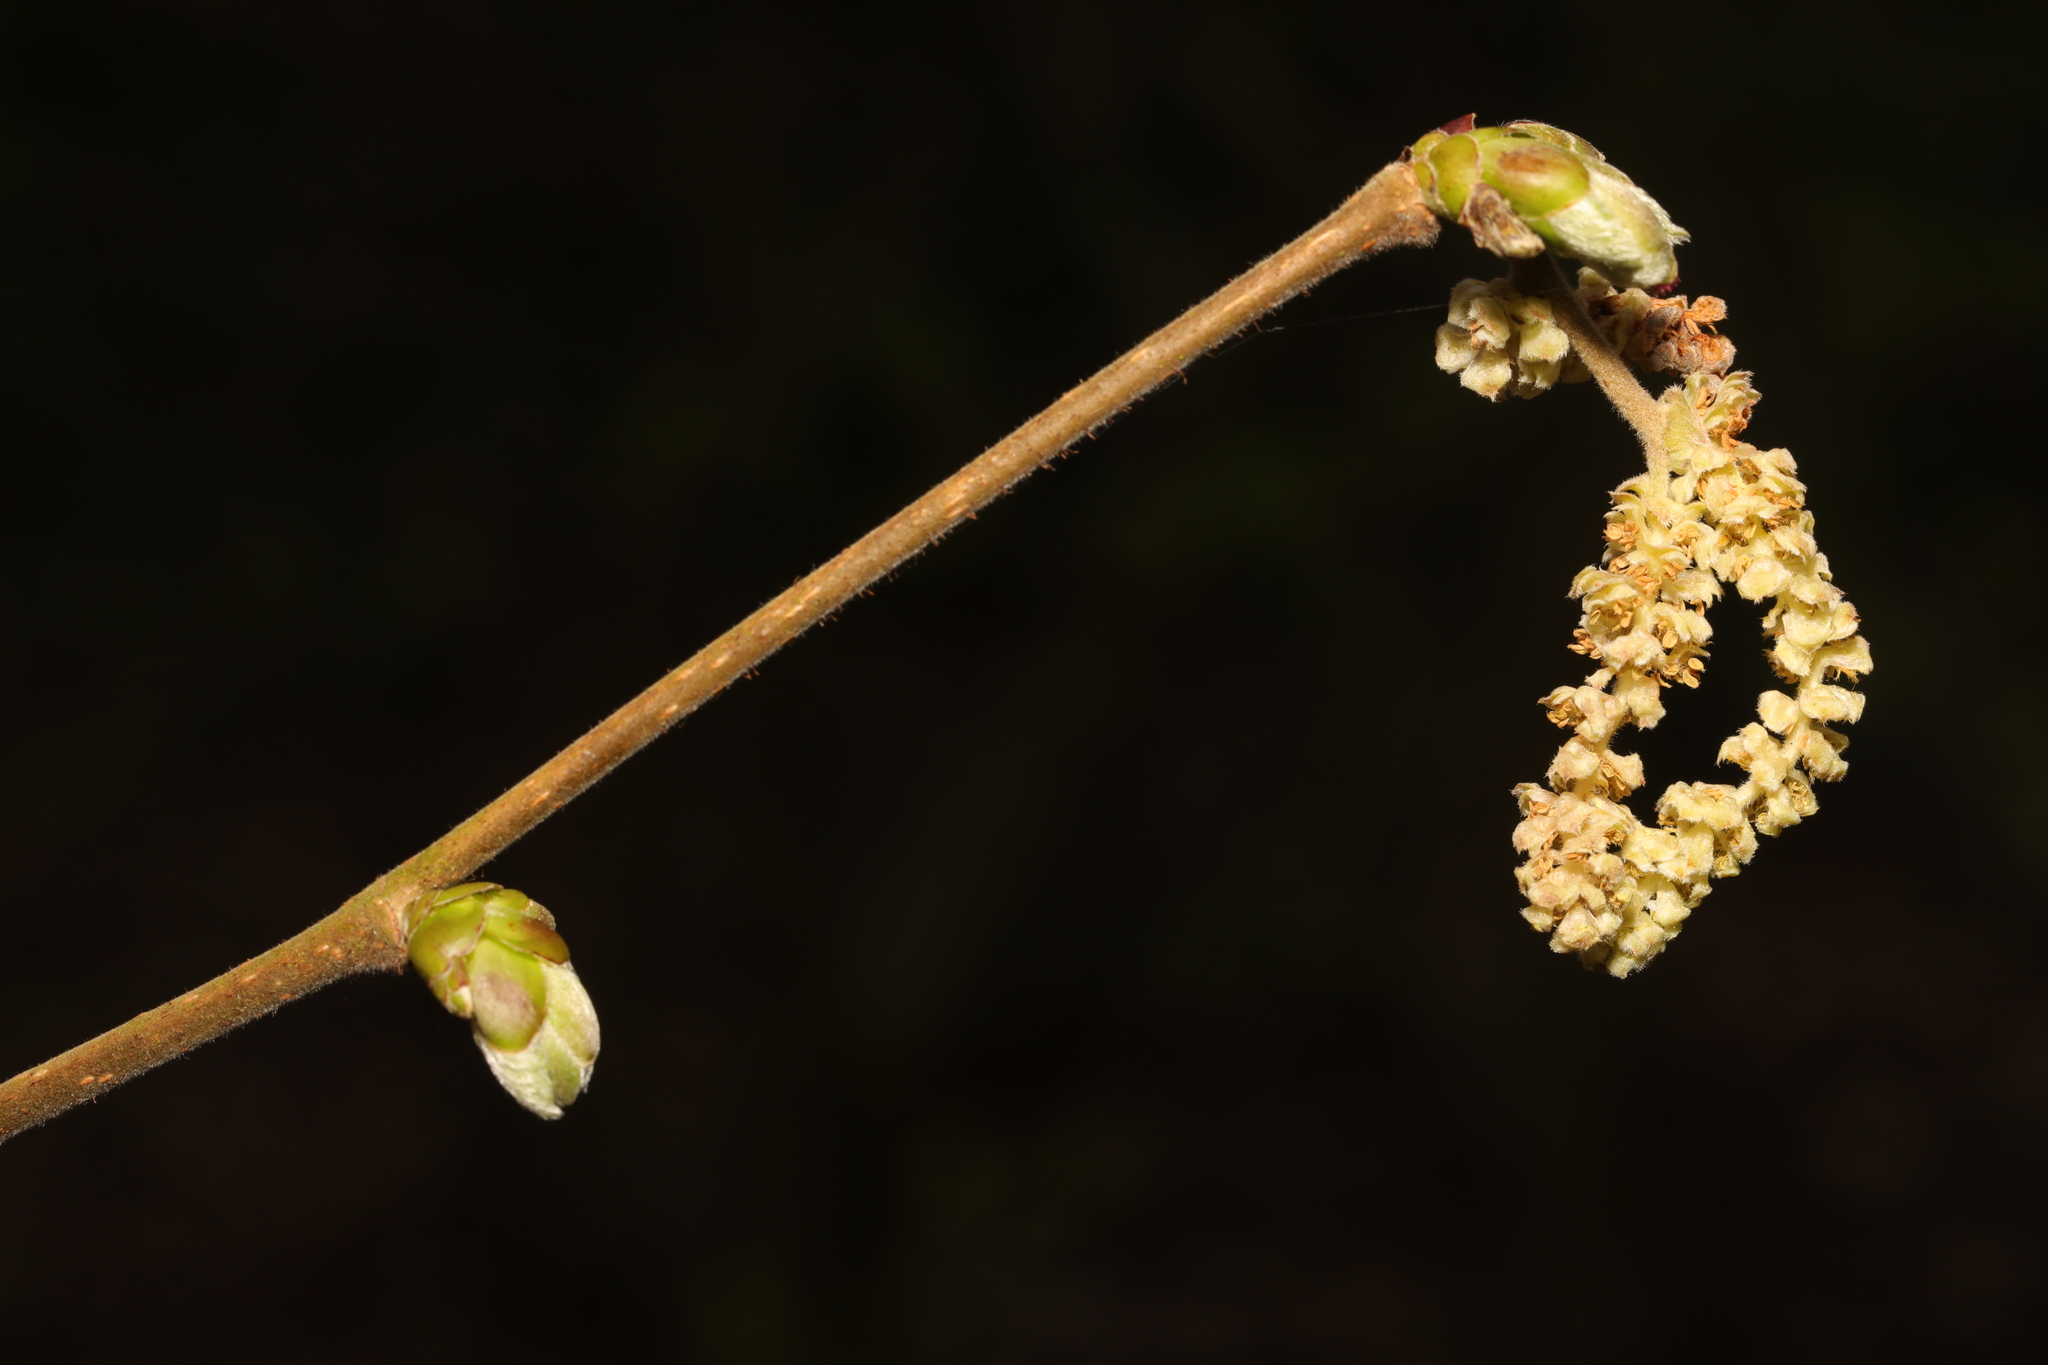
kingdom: Plantae
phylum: Tracheophyta
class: Magnoliopsida
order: Fagales
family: Betulaceae
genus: Corylus
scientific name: Corylus avellana
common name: European hazel
